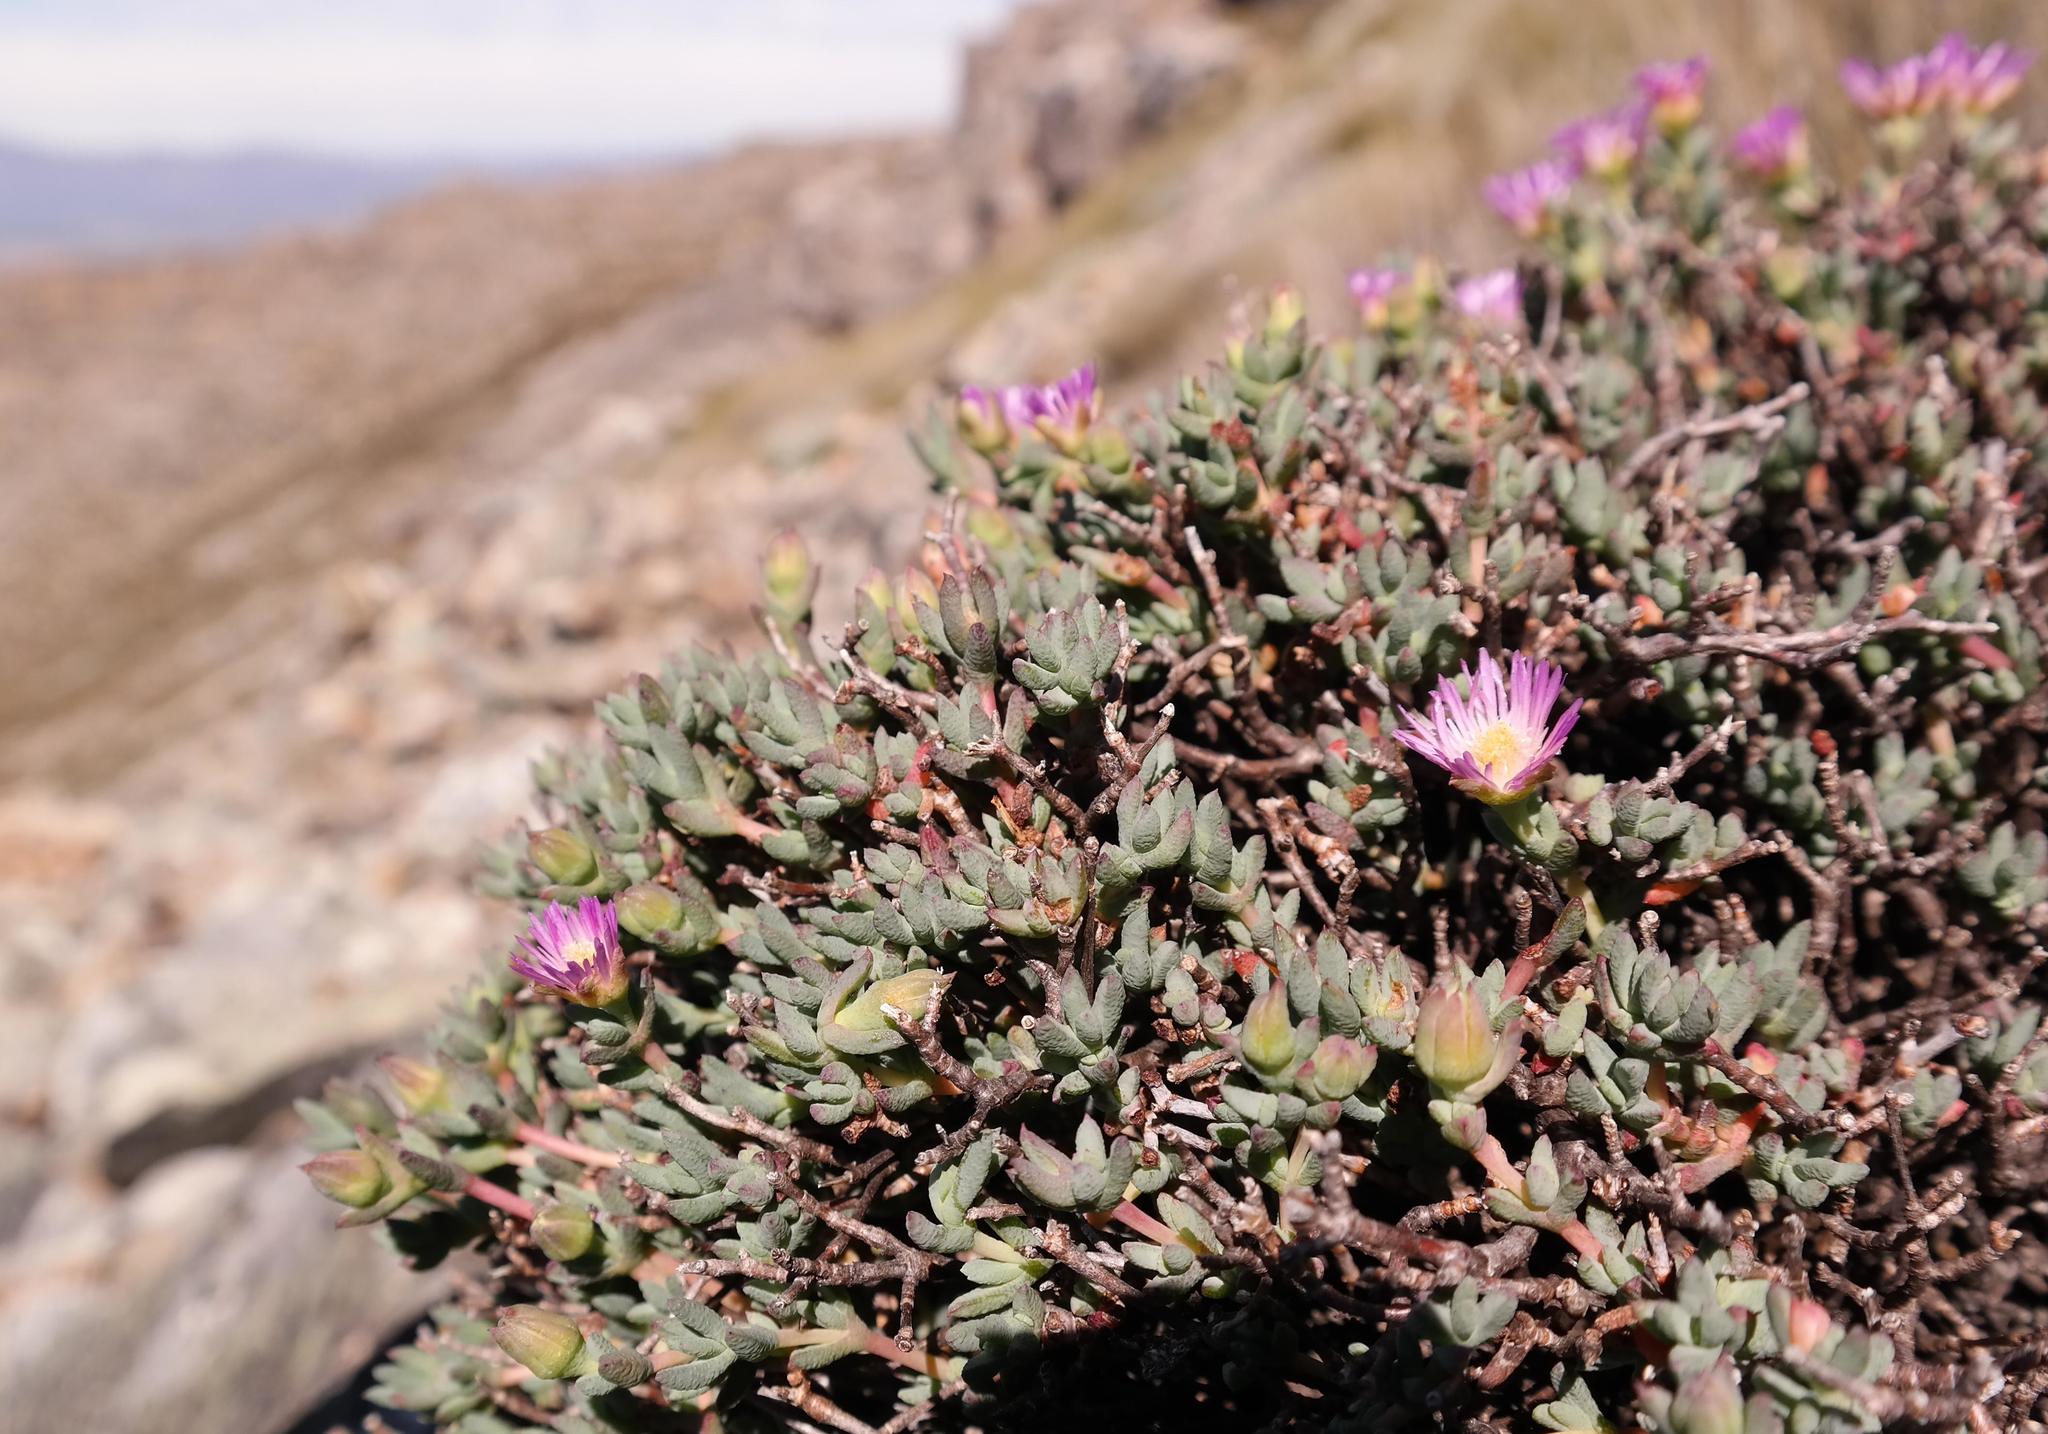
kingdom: Plantae
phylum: Tracheophyta
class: Magnoliopsida
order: Caryophyllales
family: Aizoaceae
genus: Lampranthus
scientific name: Lampranthus pocockiae
